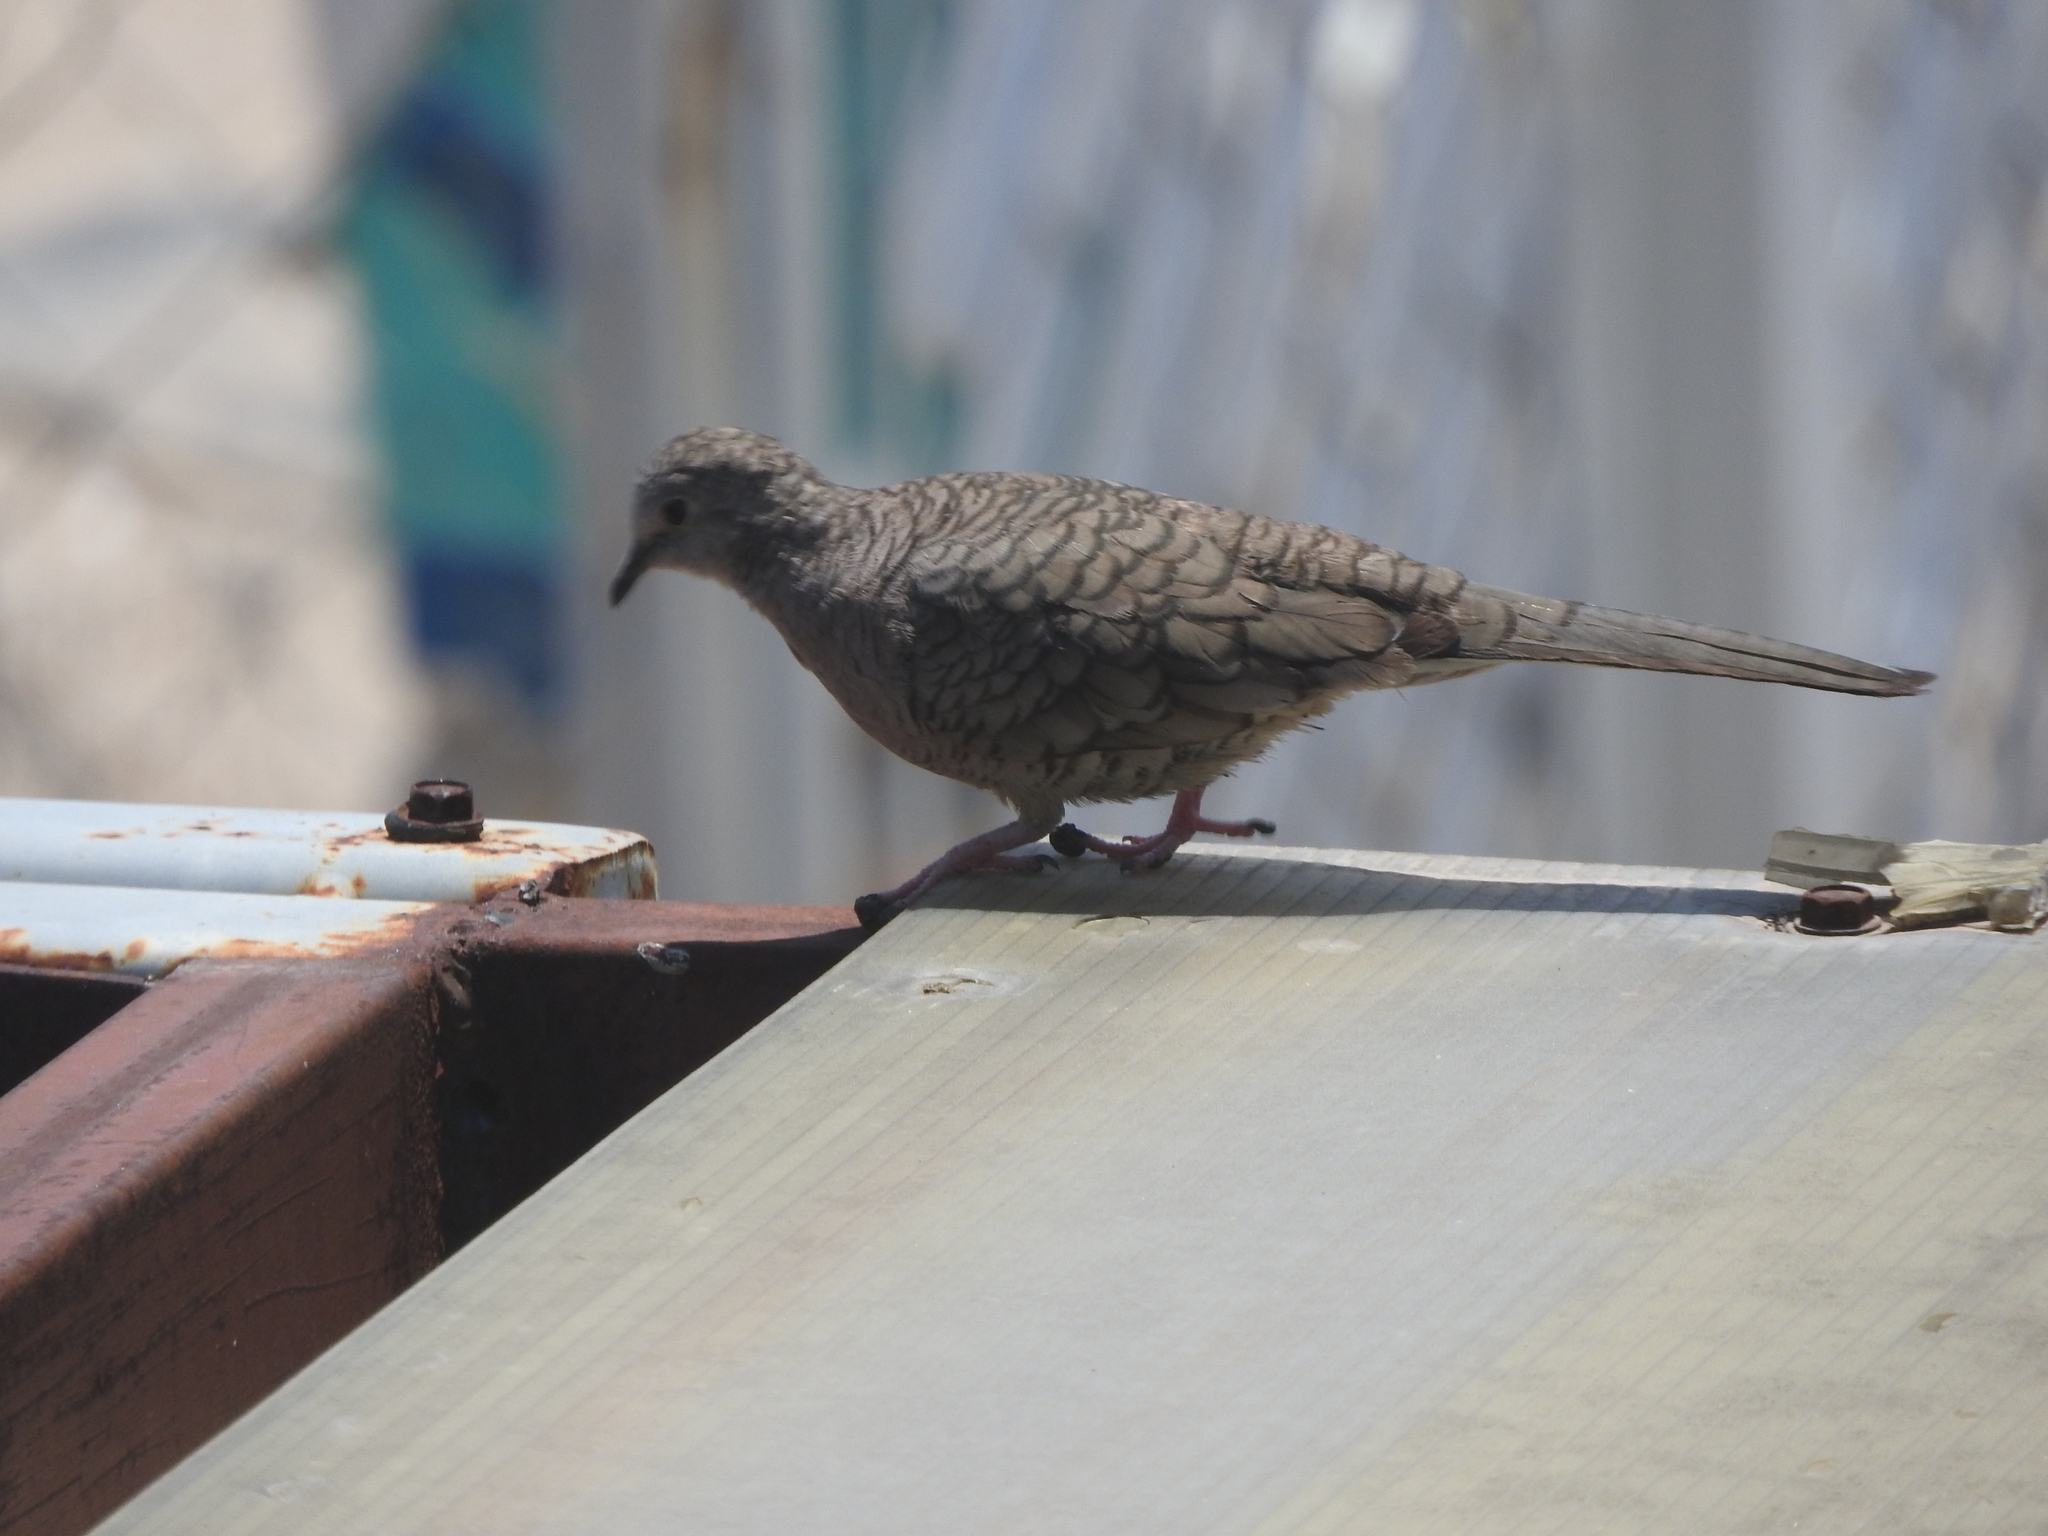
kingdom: Animalia
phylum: Chordata
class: Aves
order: Columbiformes
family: Columbidae
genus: Columbina
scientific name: Columbina inca
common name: Inca dove
